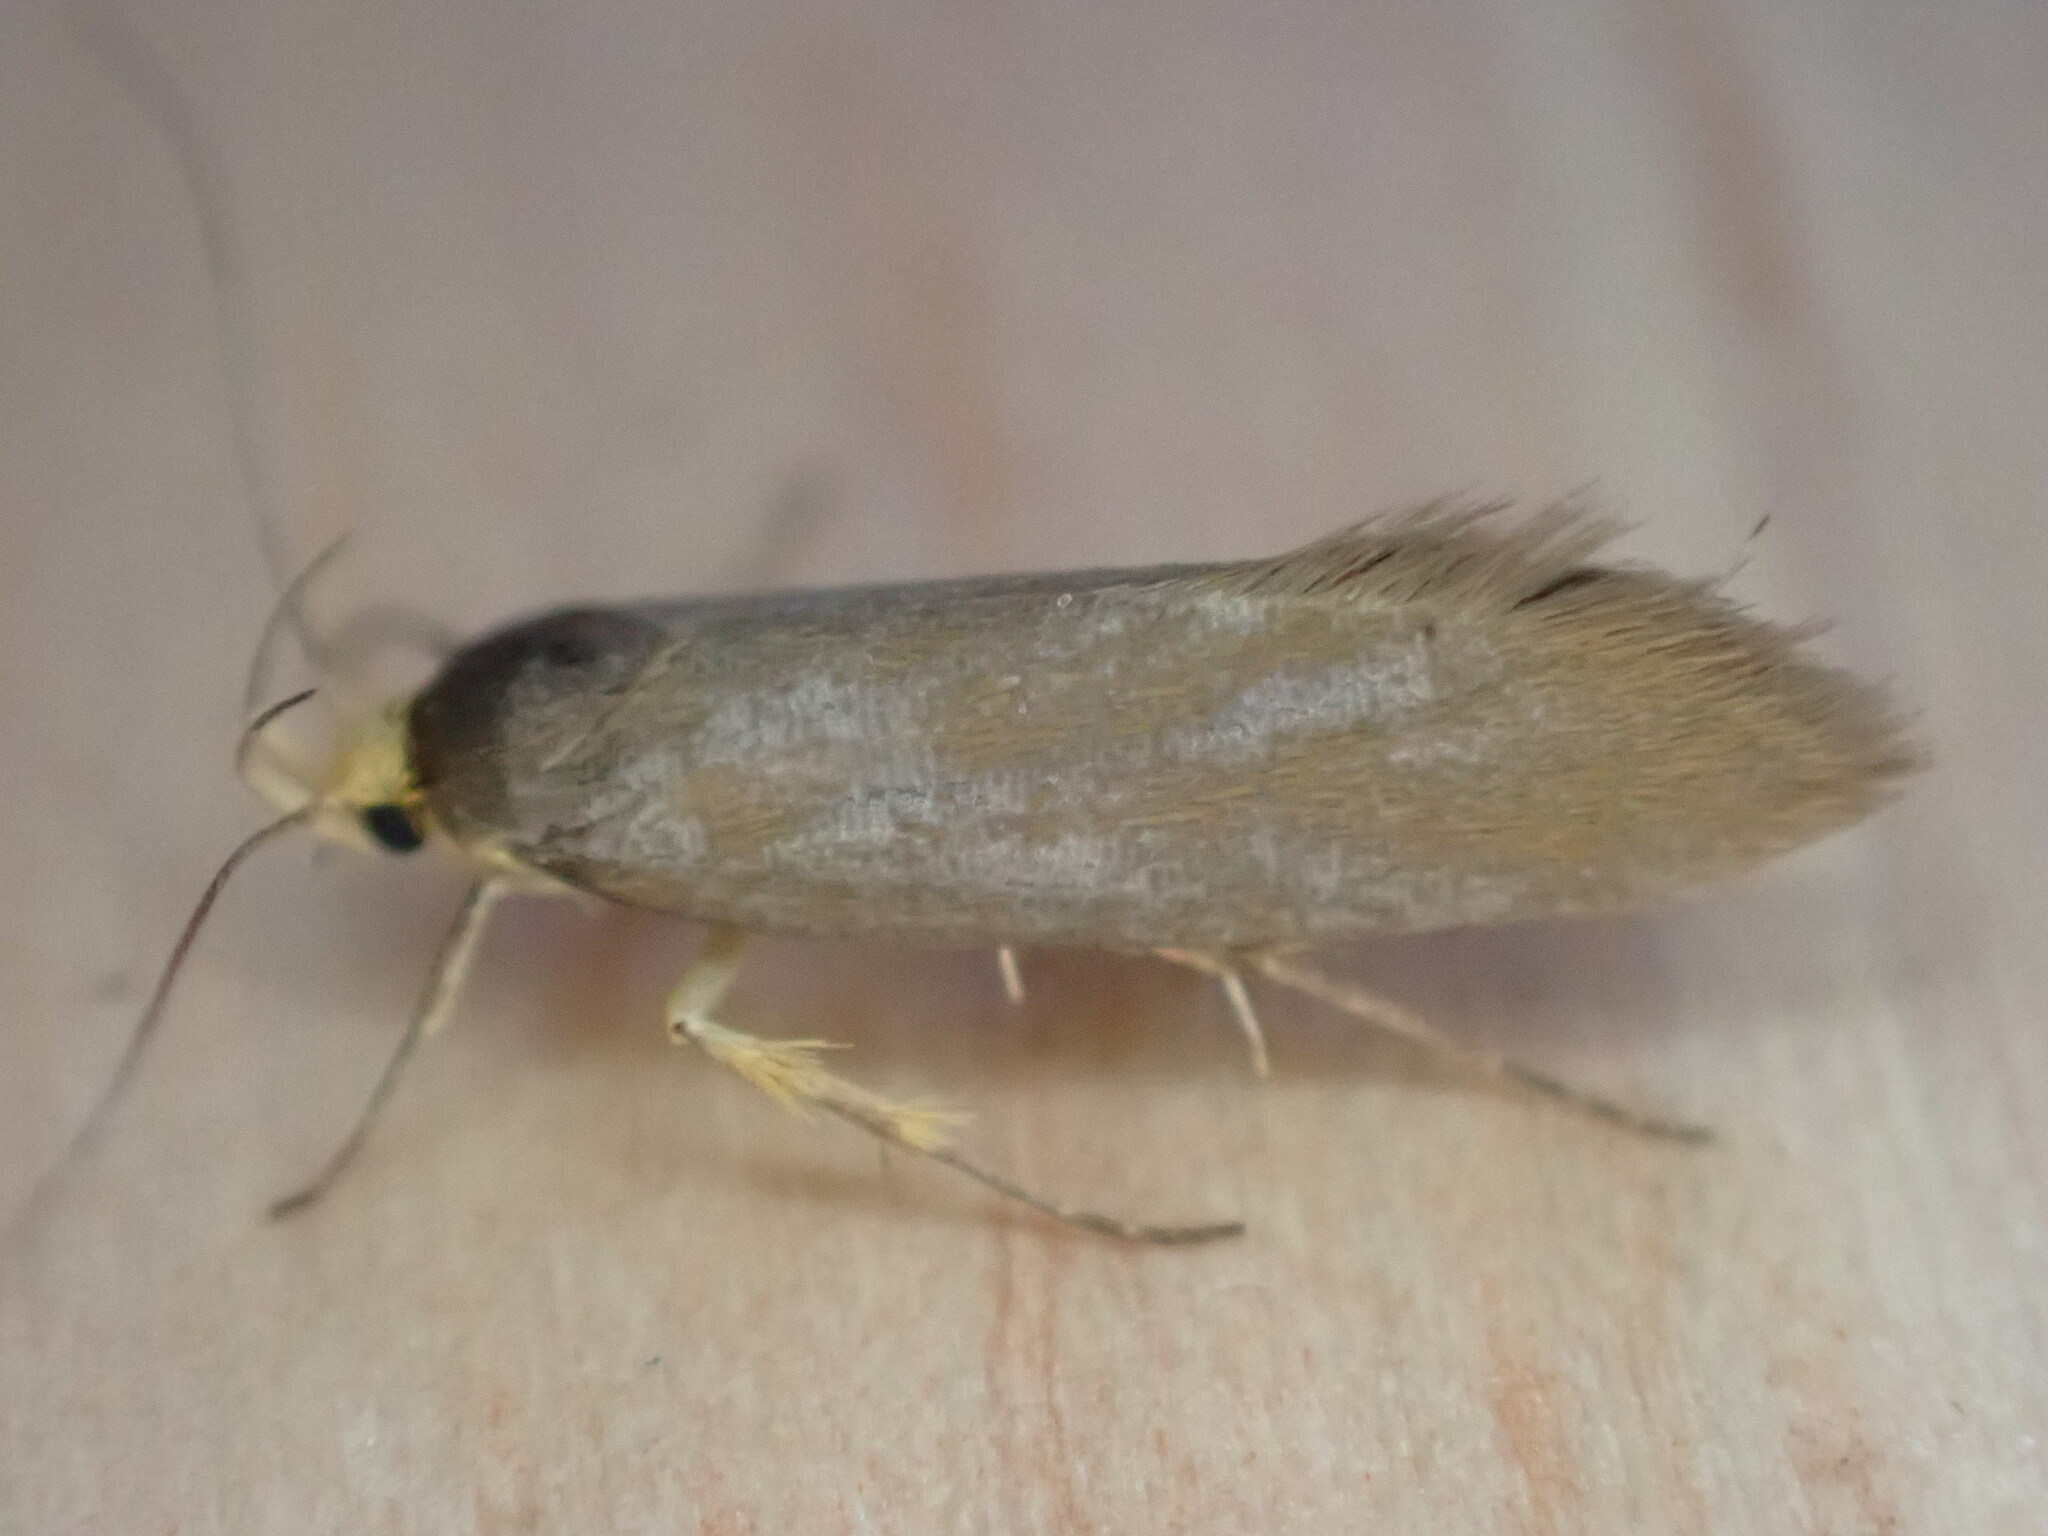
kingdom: Animalia
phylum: Arthropoda
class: Insecta
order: Lepidoptera
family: Oecophoridae
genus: Borkhausenia
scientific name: Borkhausenia Crassa unitella
